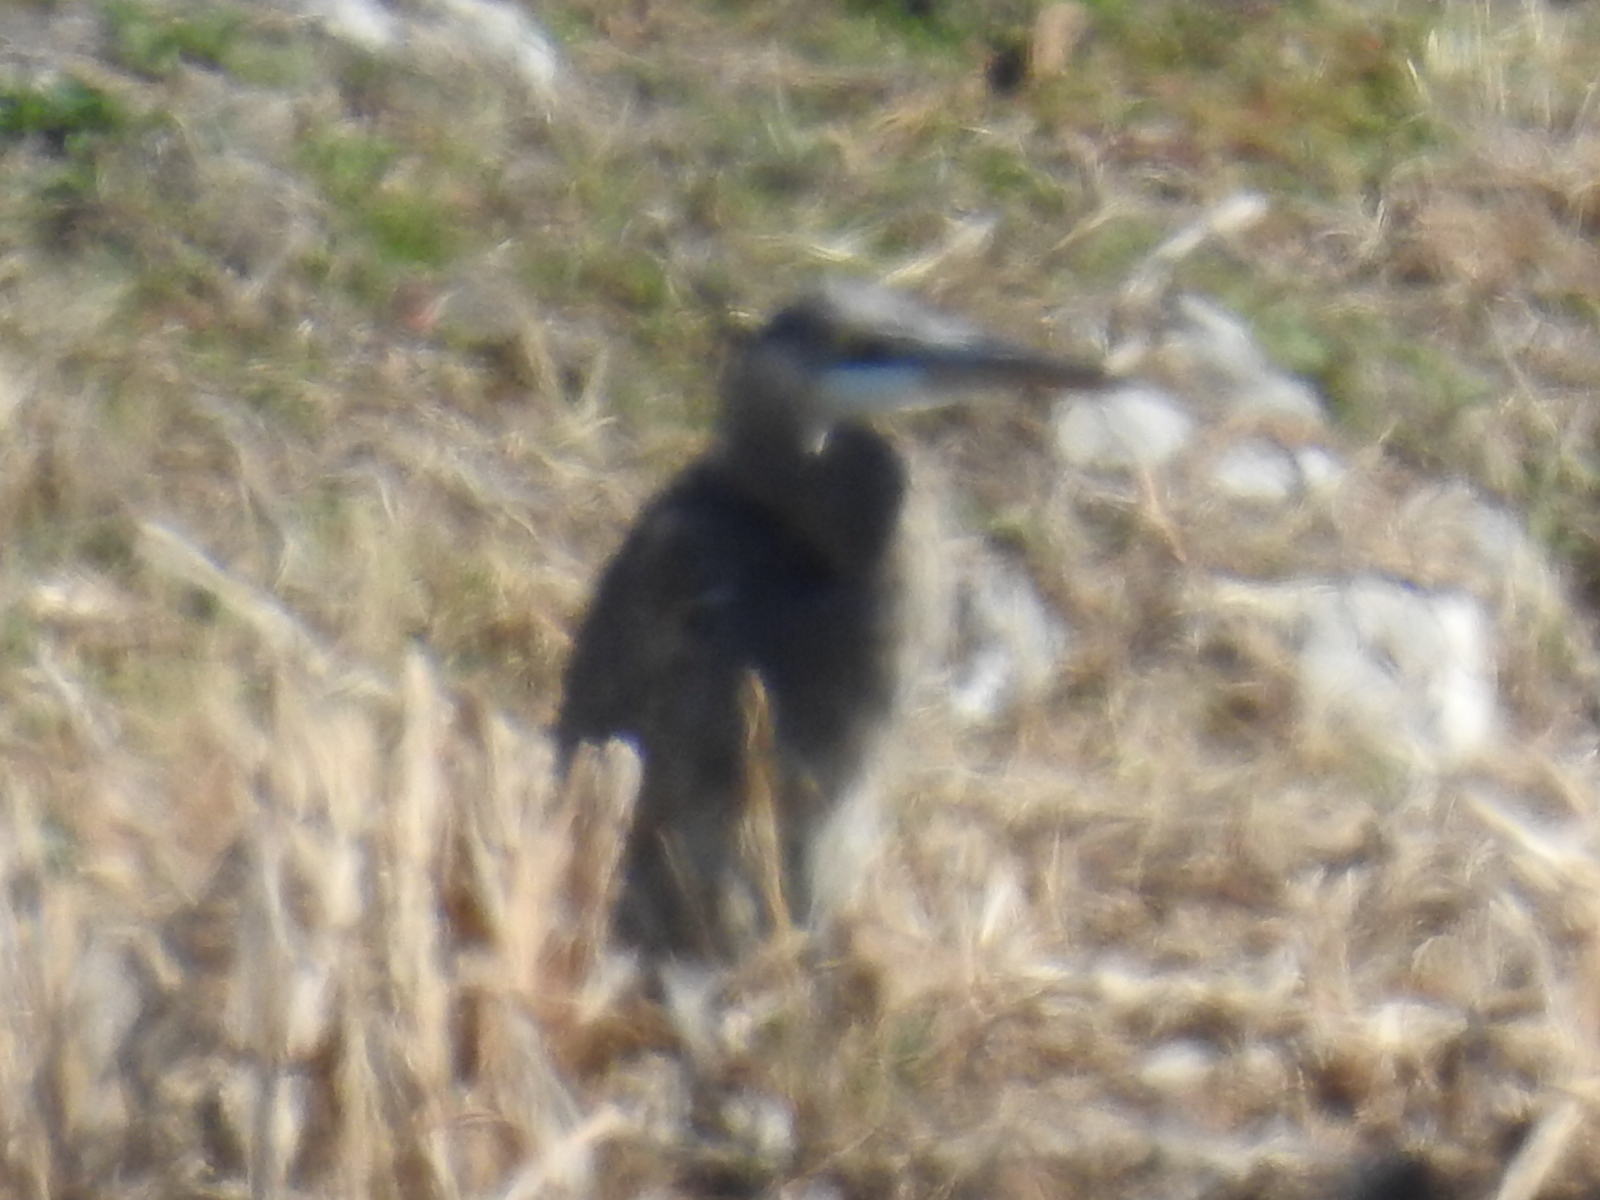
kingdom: Animalia
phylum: Chordata
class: Aves
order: Pelecaniformes
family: Ardeidae
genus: Ardea
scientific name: Ardea herodias
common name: Great blue heron
